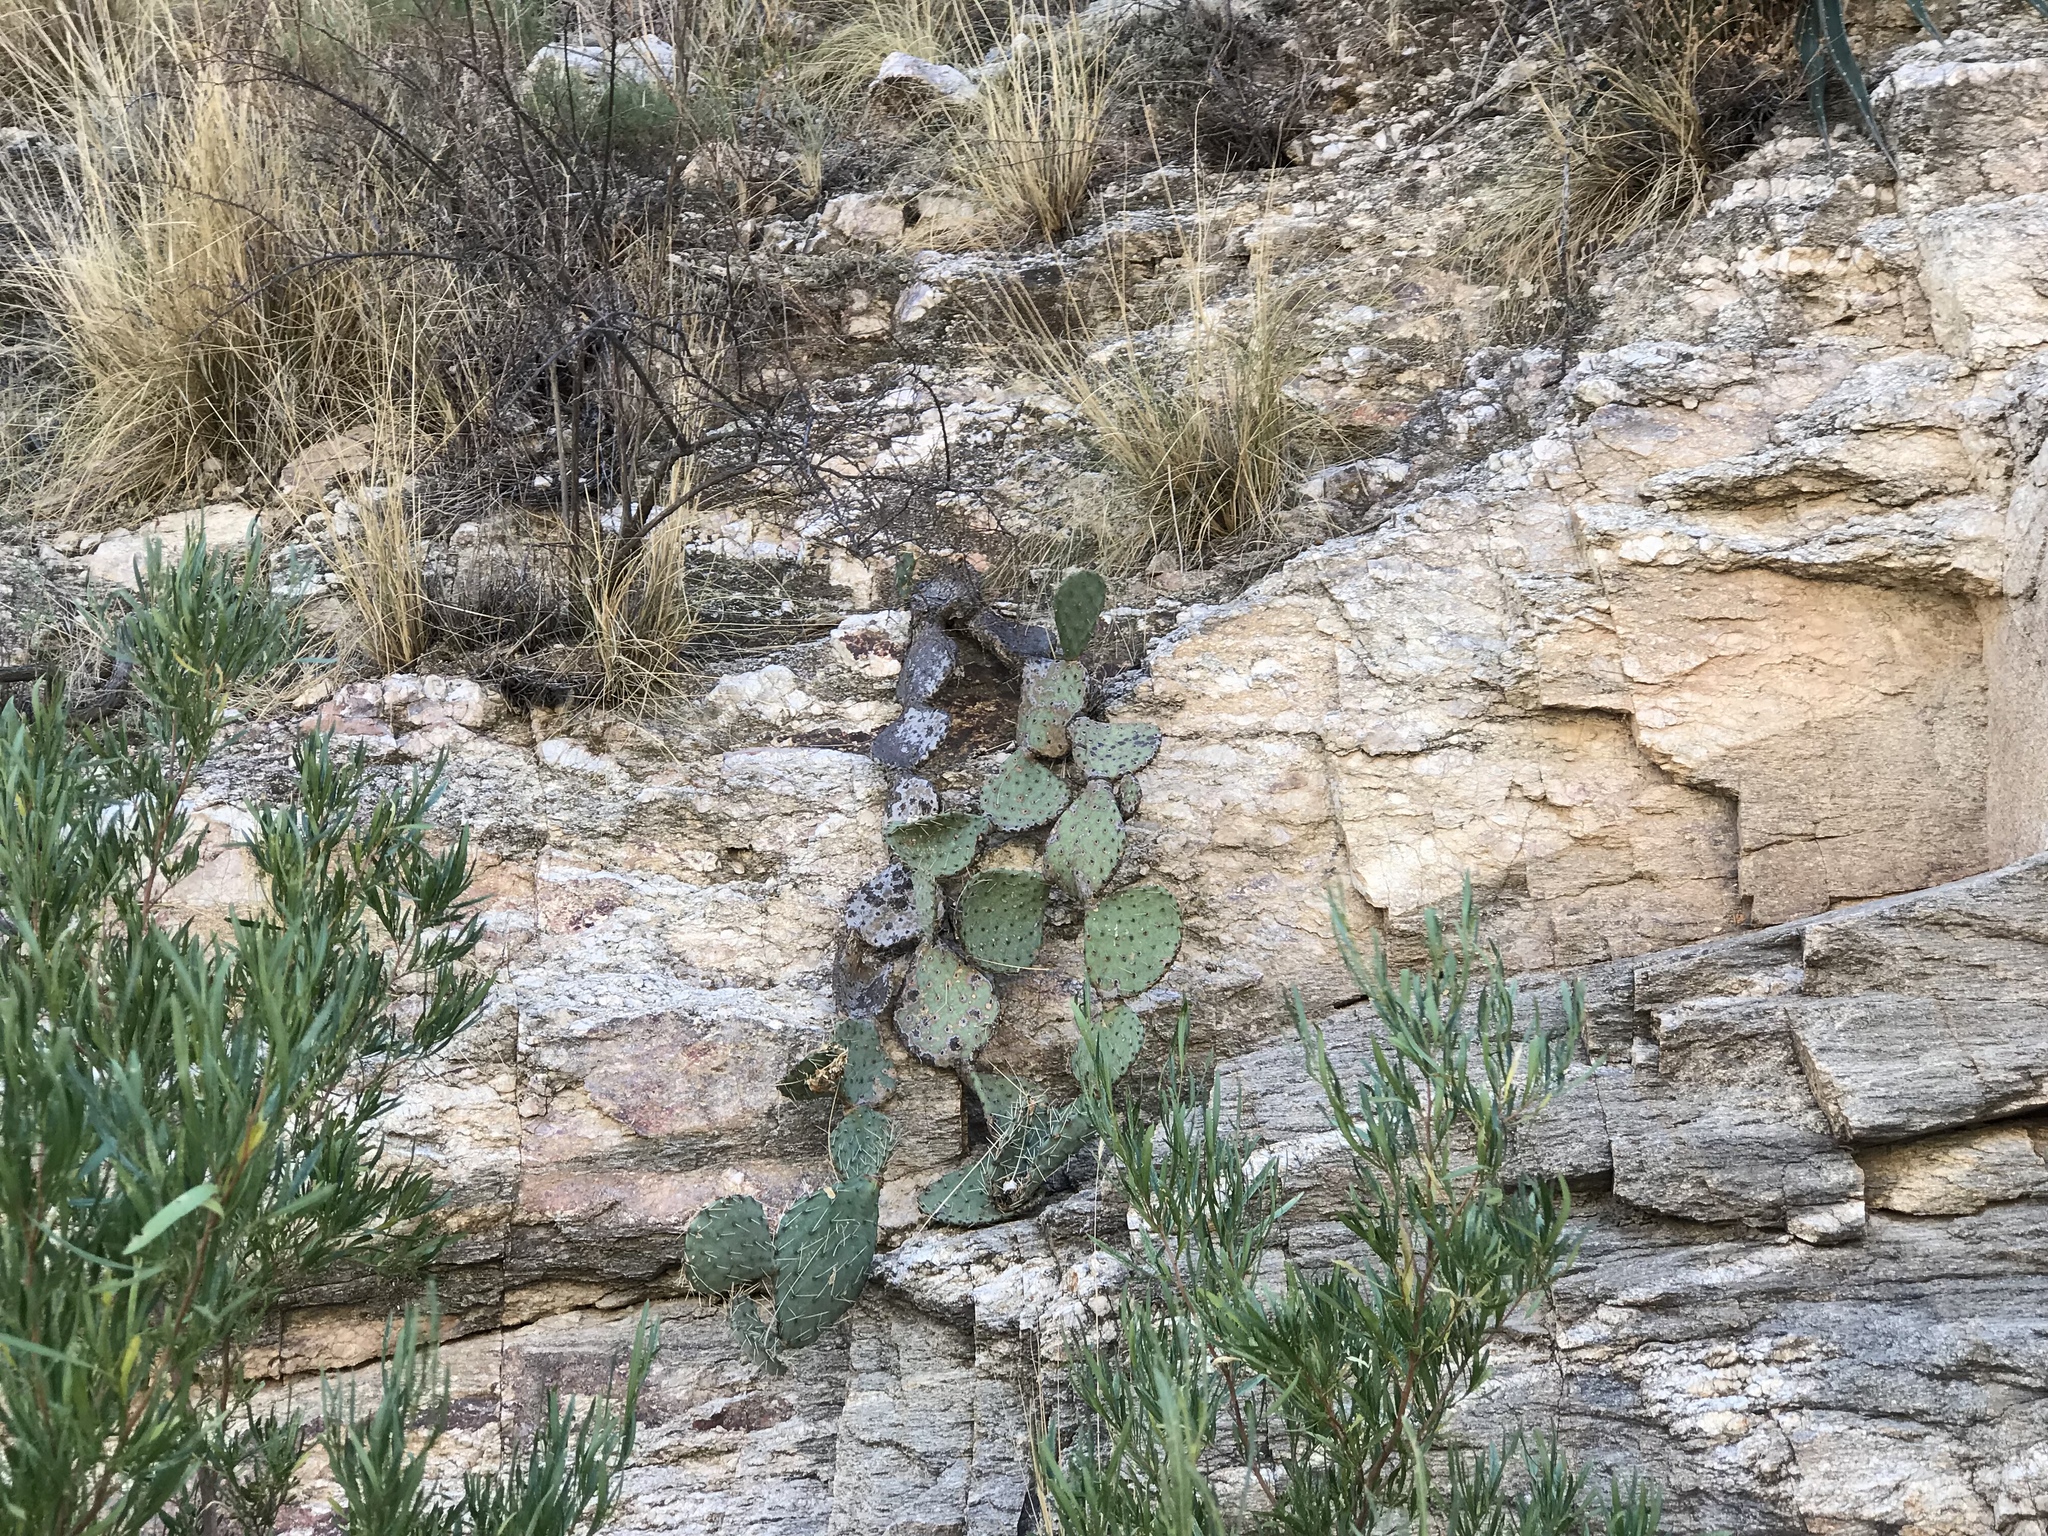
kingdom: Plantae
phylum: Tracheophyta
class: Magnoliopsida
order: Caryophyllales
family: Cactaceae
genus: Opuntia
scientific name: Opuntia chlorotica
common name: Dollar-joint prickly-pear
